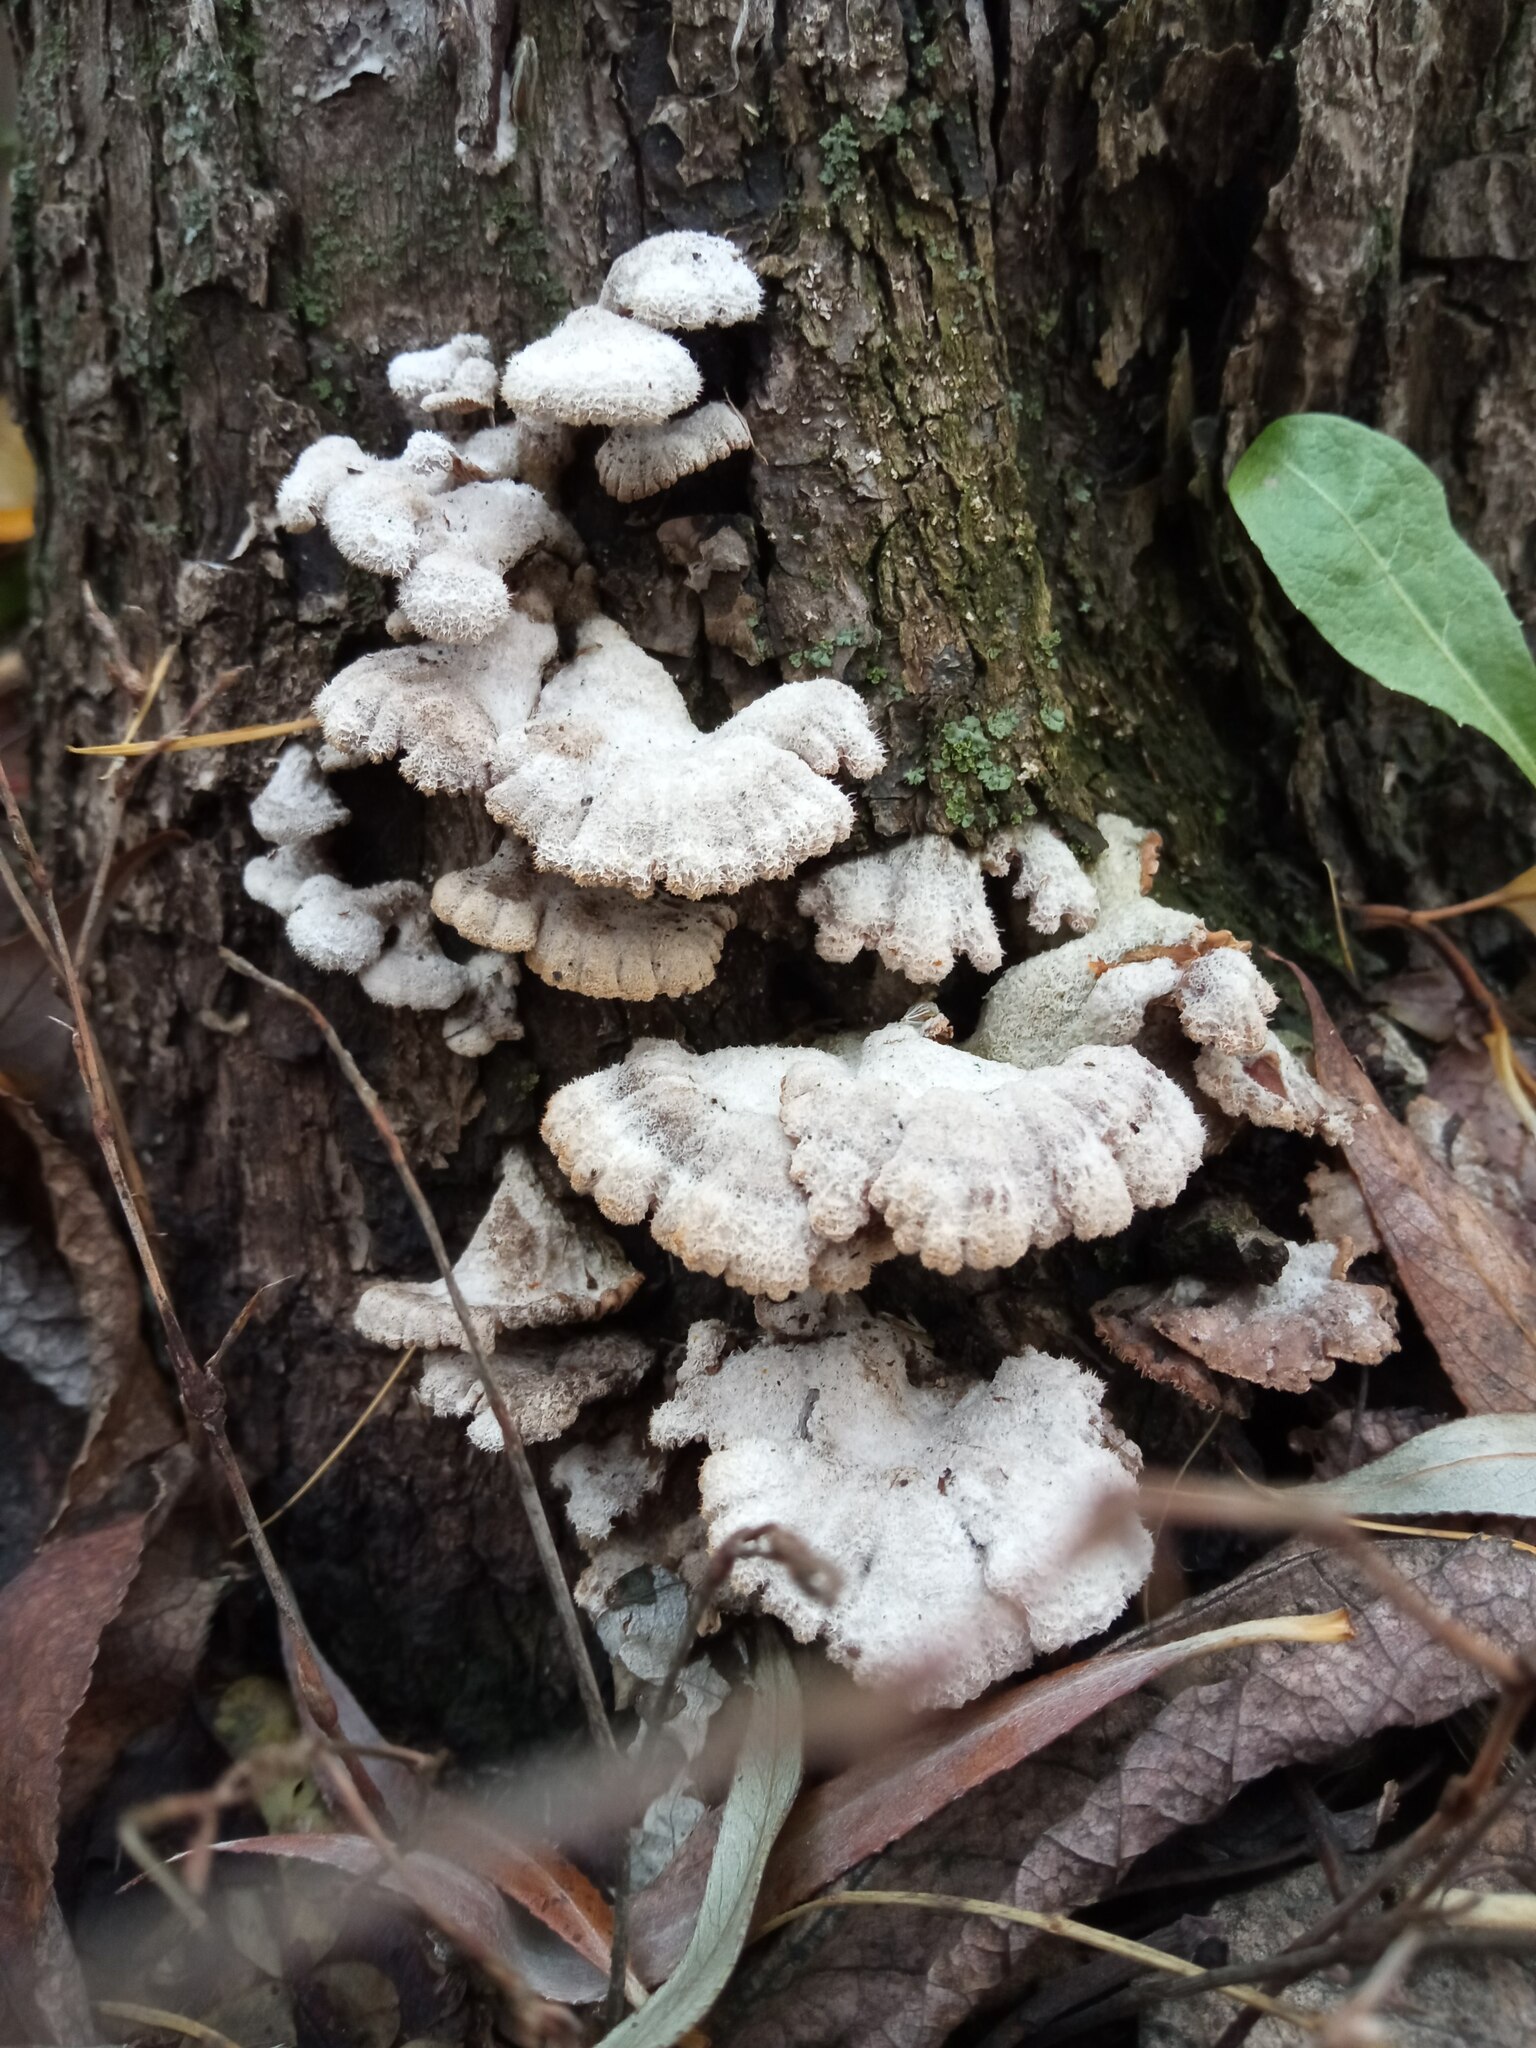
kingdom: Fungi
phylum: Basidiomycota
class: Agaricomycetes
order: Agaricales
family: Schizophyllaceae
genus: Schizophyllum
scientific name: Schizophyllum commune
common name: Common porecrust
